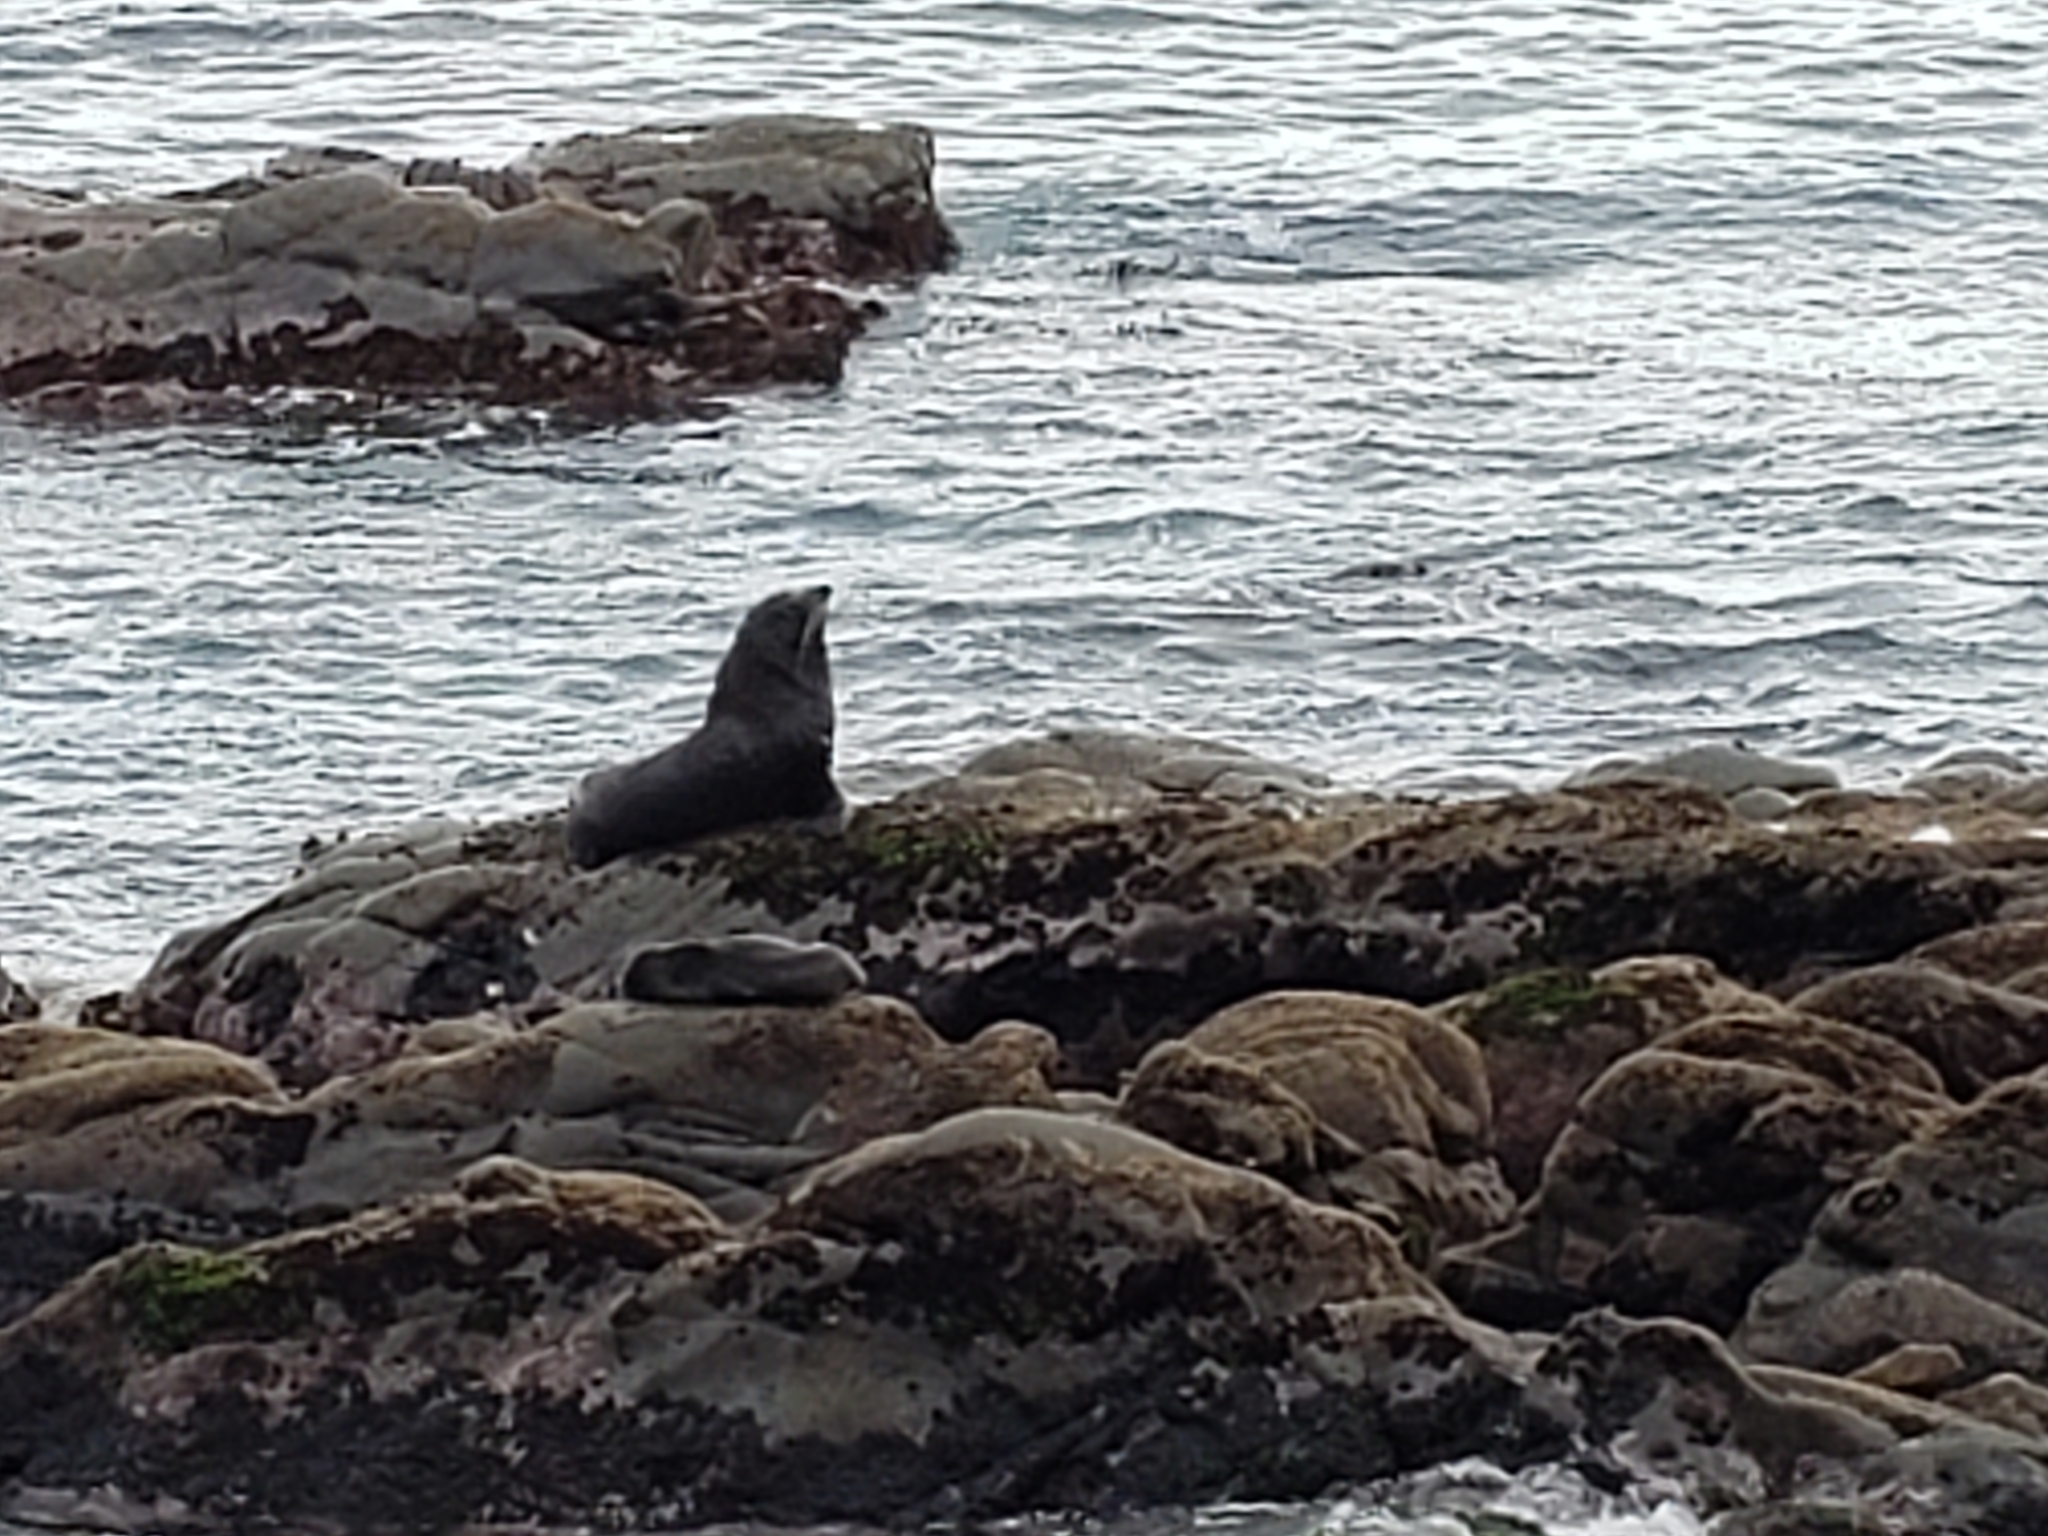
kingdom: Animalia
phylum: Chordata
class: Mammalia
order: Carnivora
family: Otariidae
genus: Arctocephalus
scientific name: Arctocephalus forsteri
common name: New zealand fur seal
